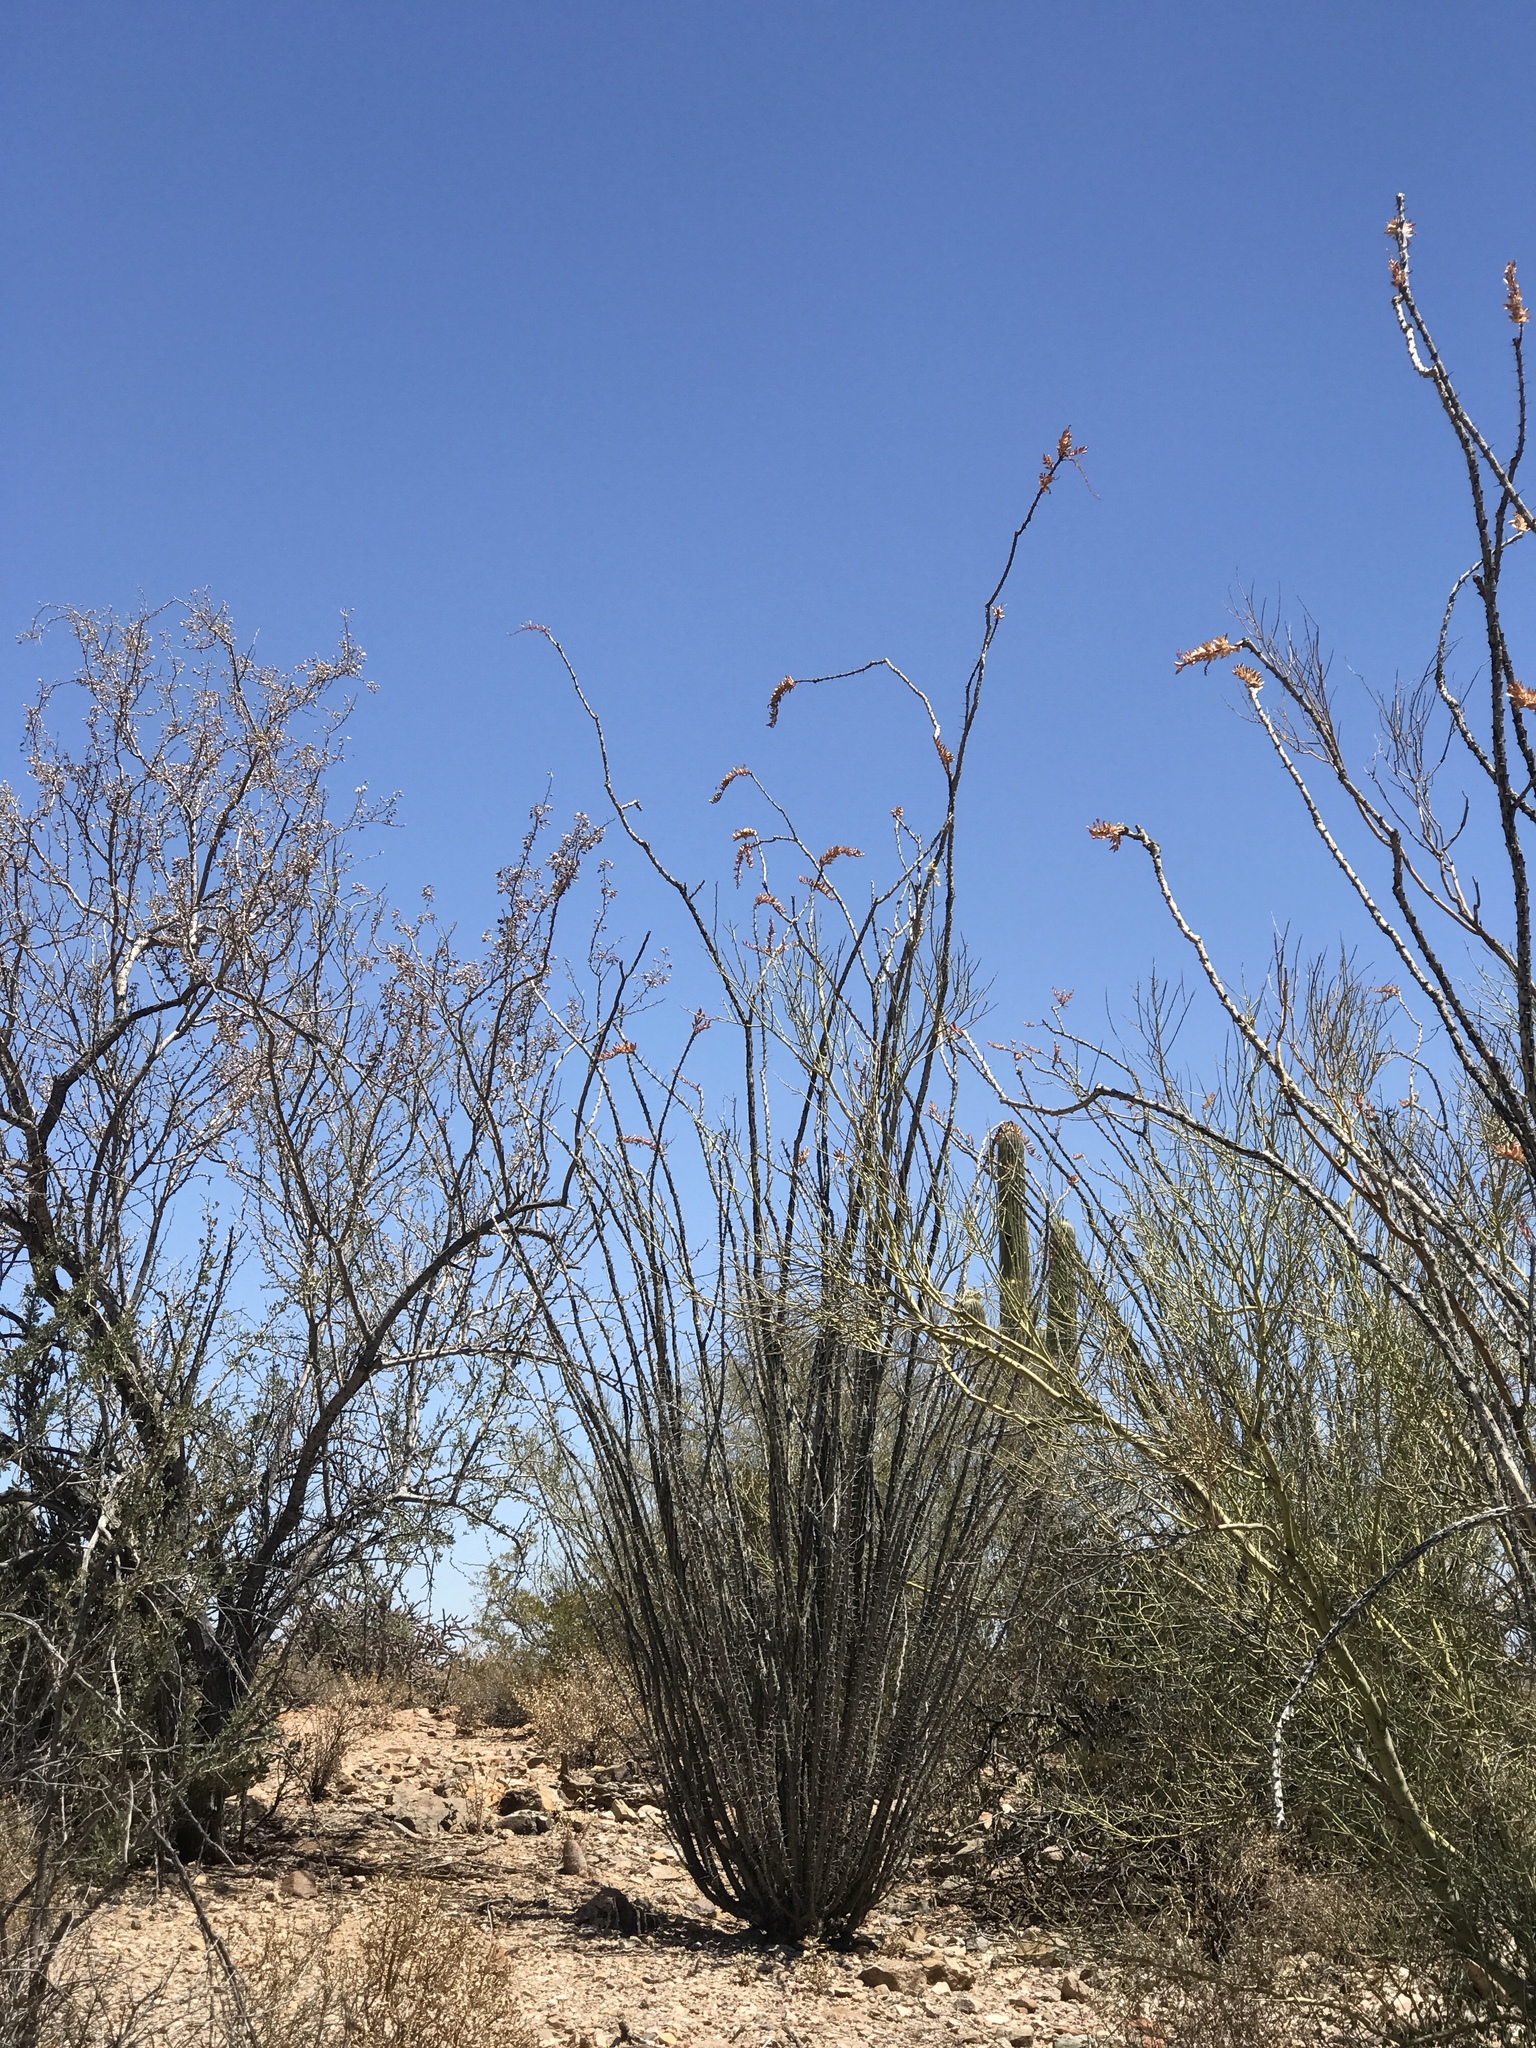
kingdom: Plantae
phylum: Tracheophyta
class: Magnoliopsida
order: Ericales
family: Fouquieriaceae
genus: Fouquieria
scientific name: Fouquieria splendens
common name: Vine-cactus
